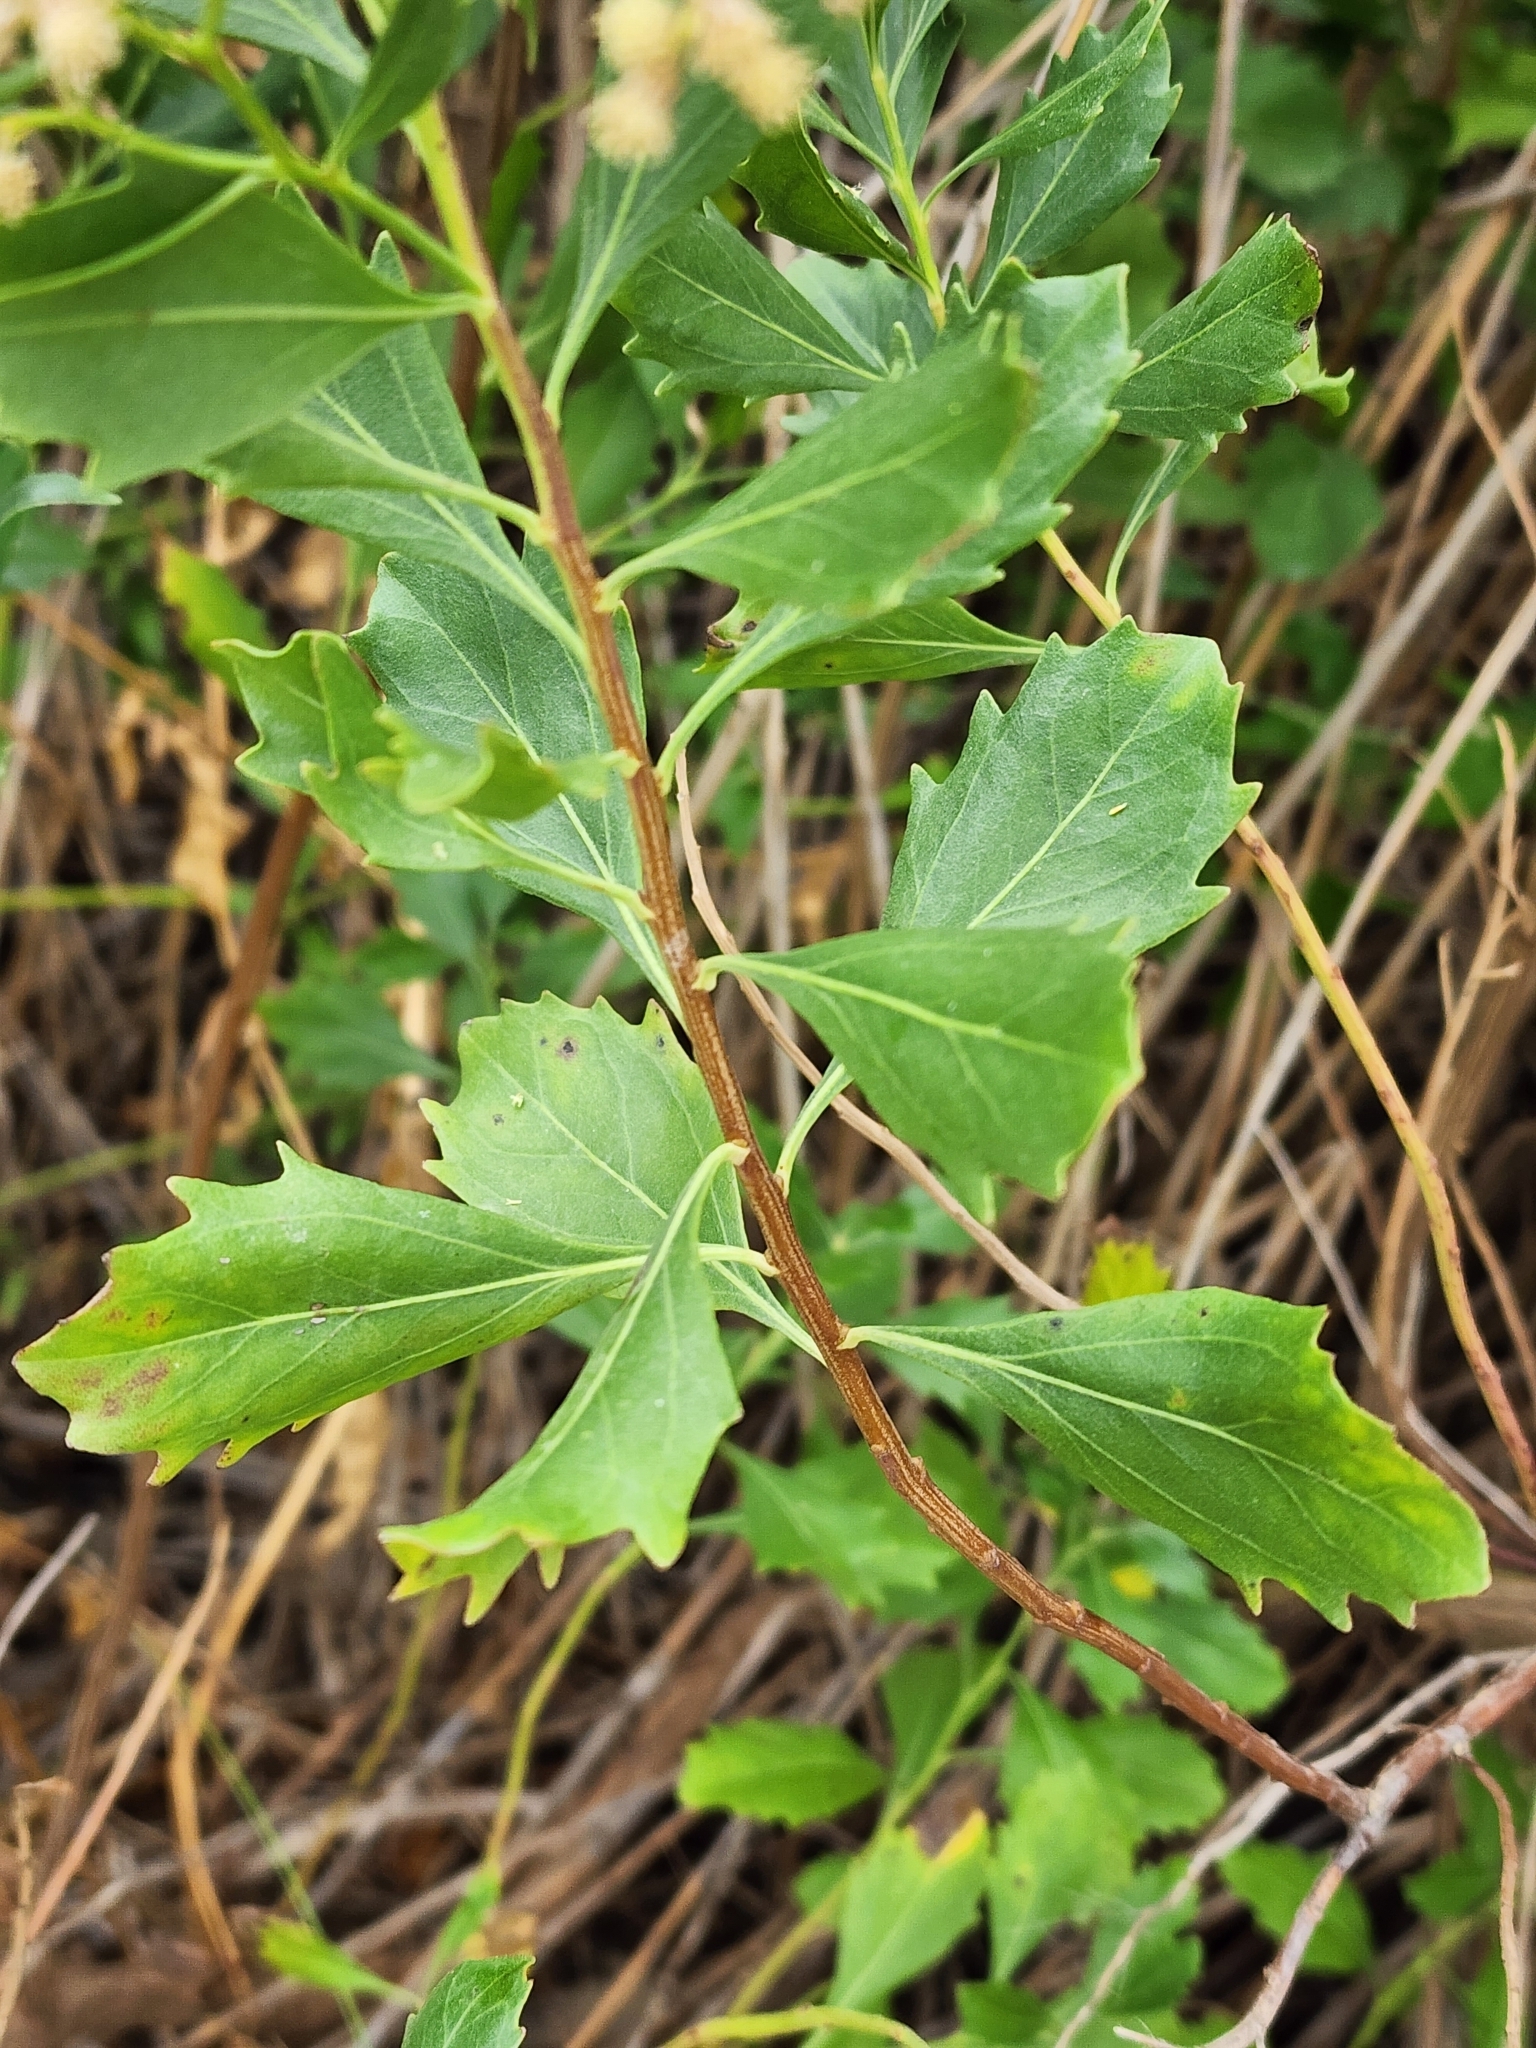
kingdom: Plantae
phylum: Tracheophyta
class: Magnoliopsida
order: Asterales
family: Asteraceae
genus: Baccharis
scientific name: Baccharis halimifolia
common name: Eastern baccharis
